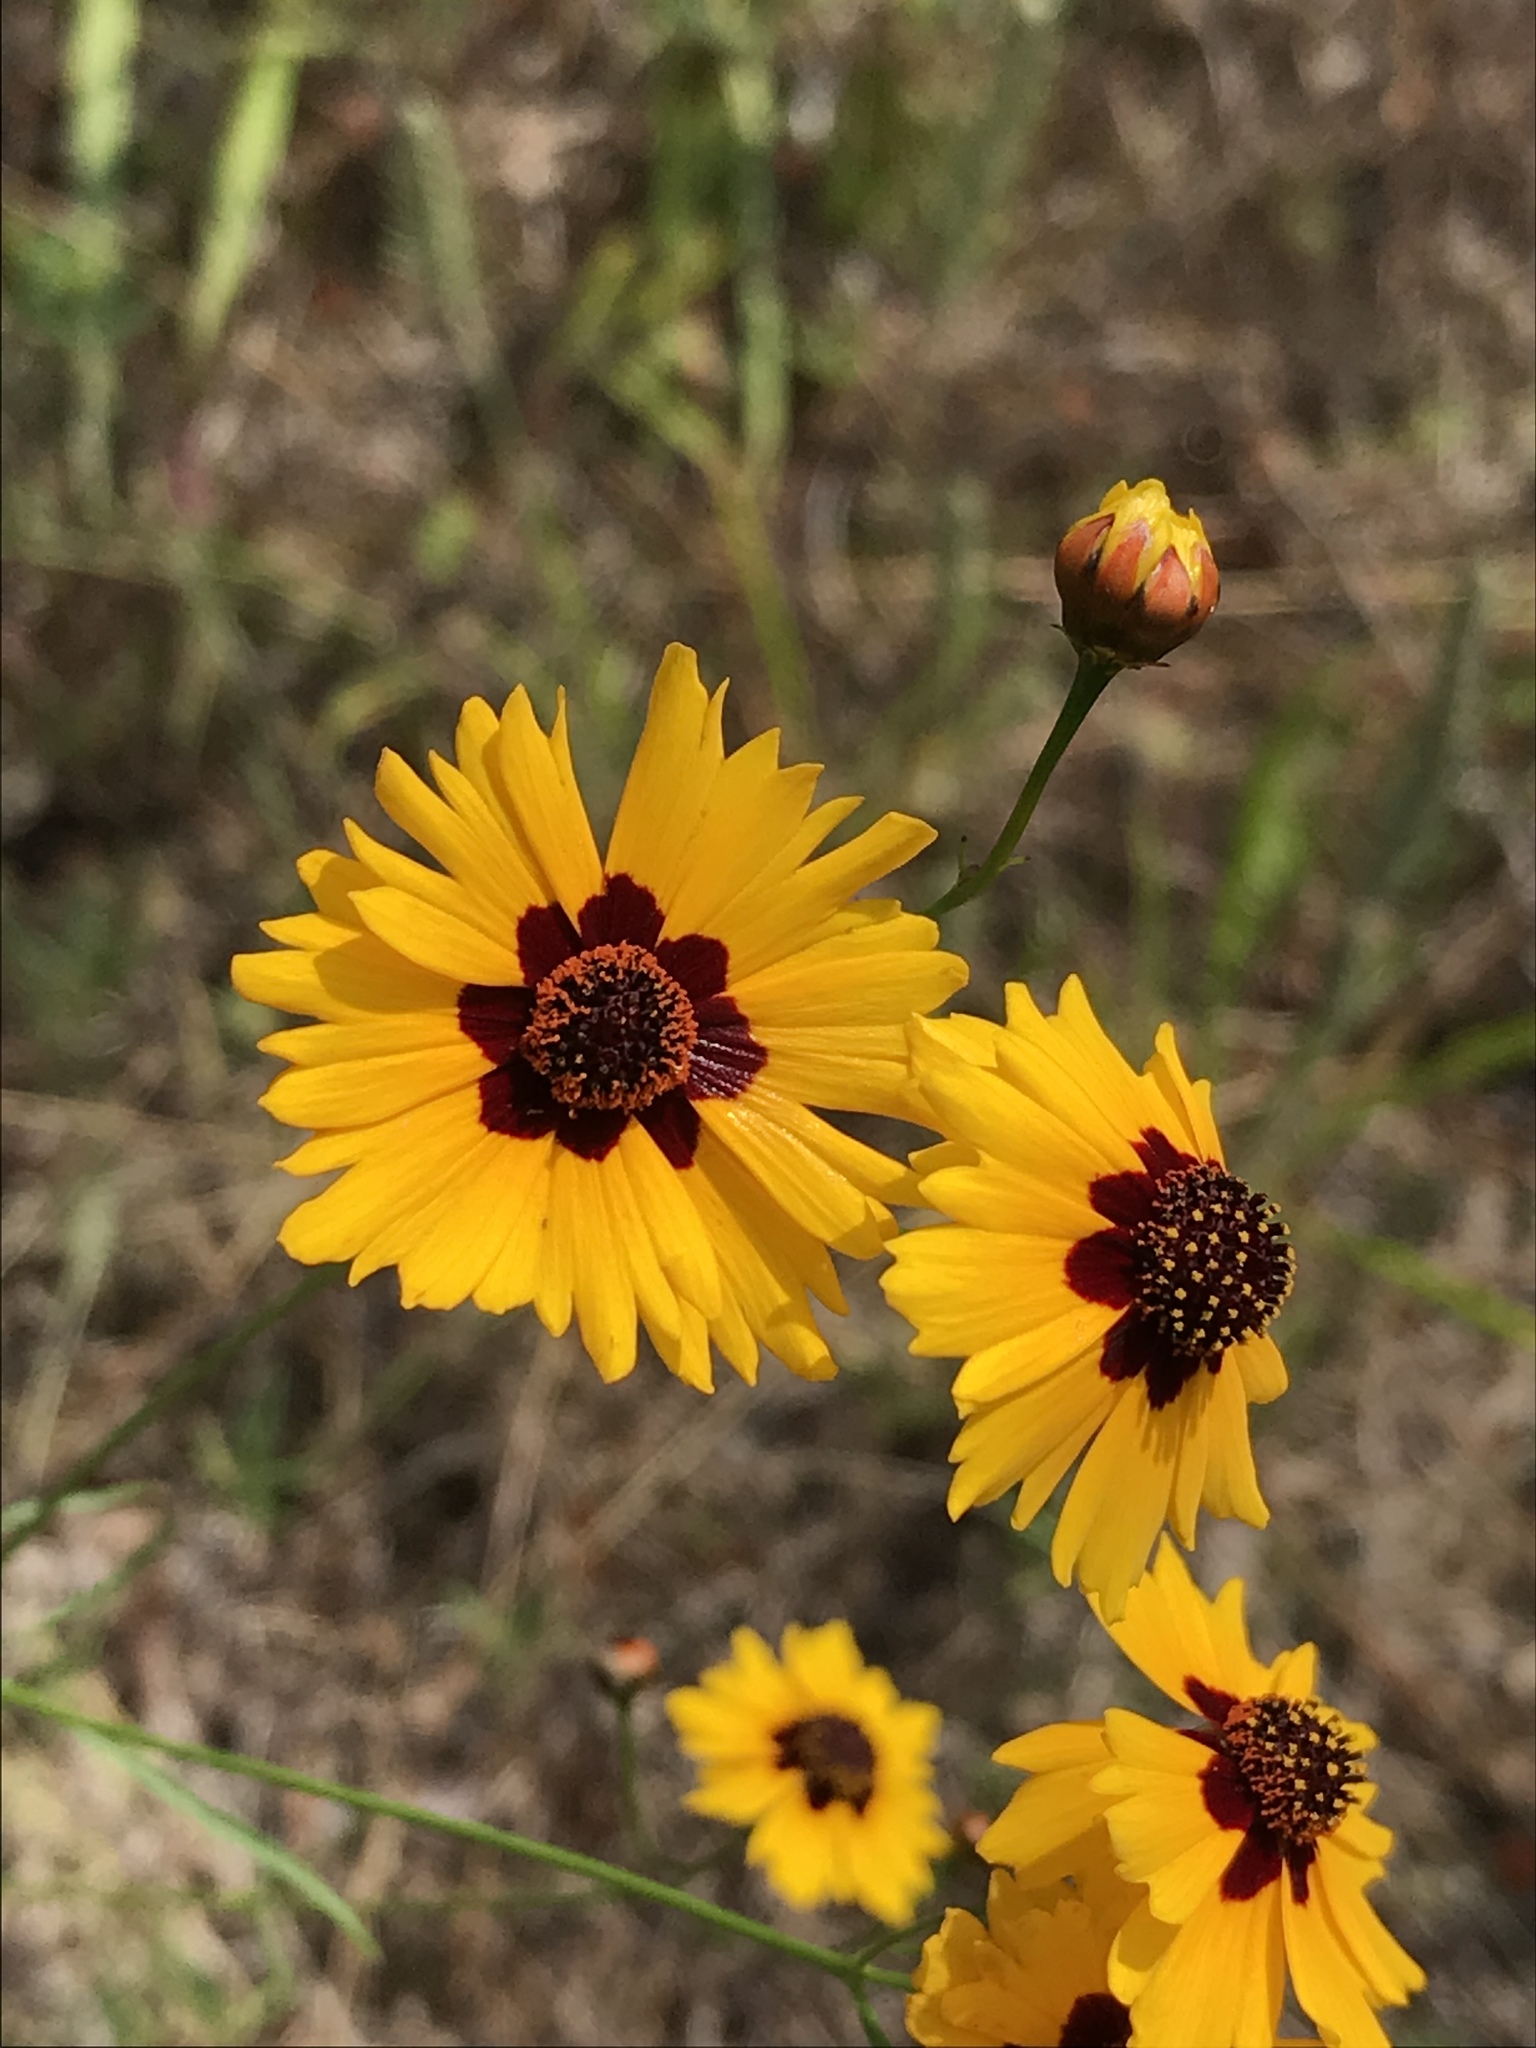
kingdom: Plantae
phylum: Tracheophyta
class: Magnoliopsida
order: Asterales
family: Asteraceae
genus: Coreopsis
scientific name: Coreopsis tinctoria
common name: Garden tickseed
